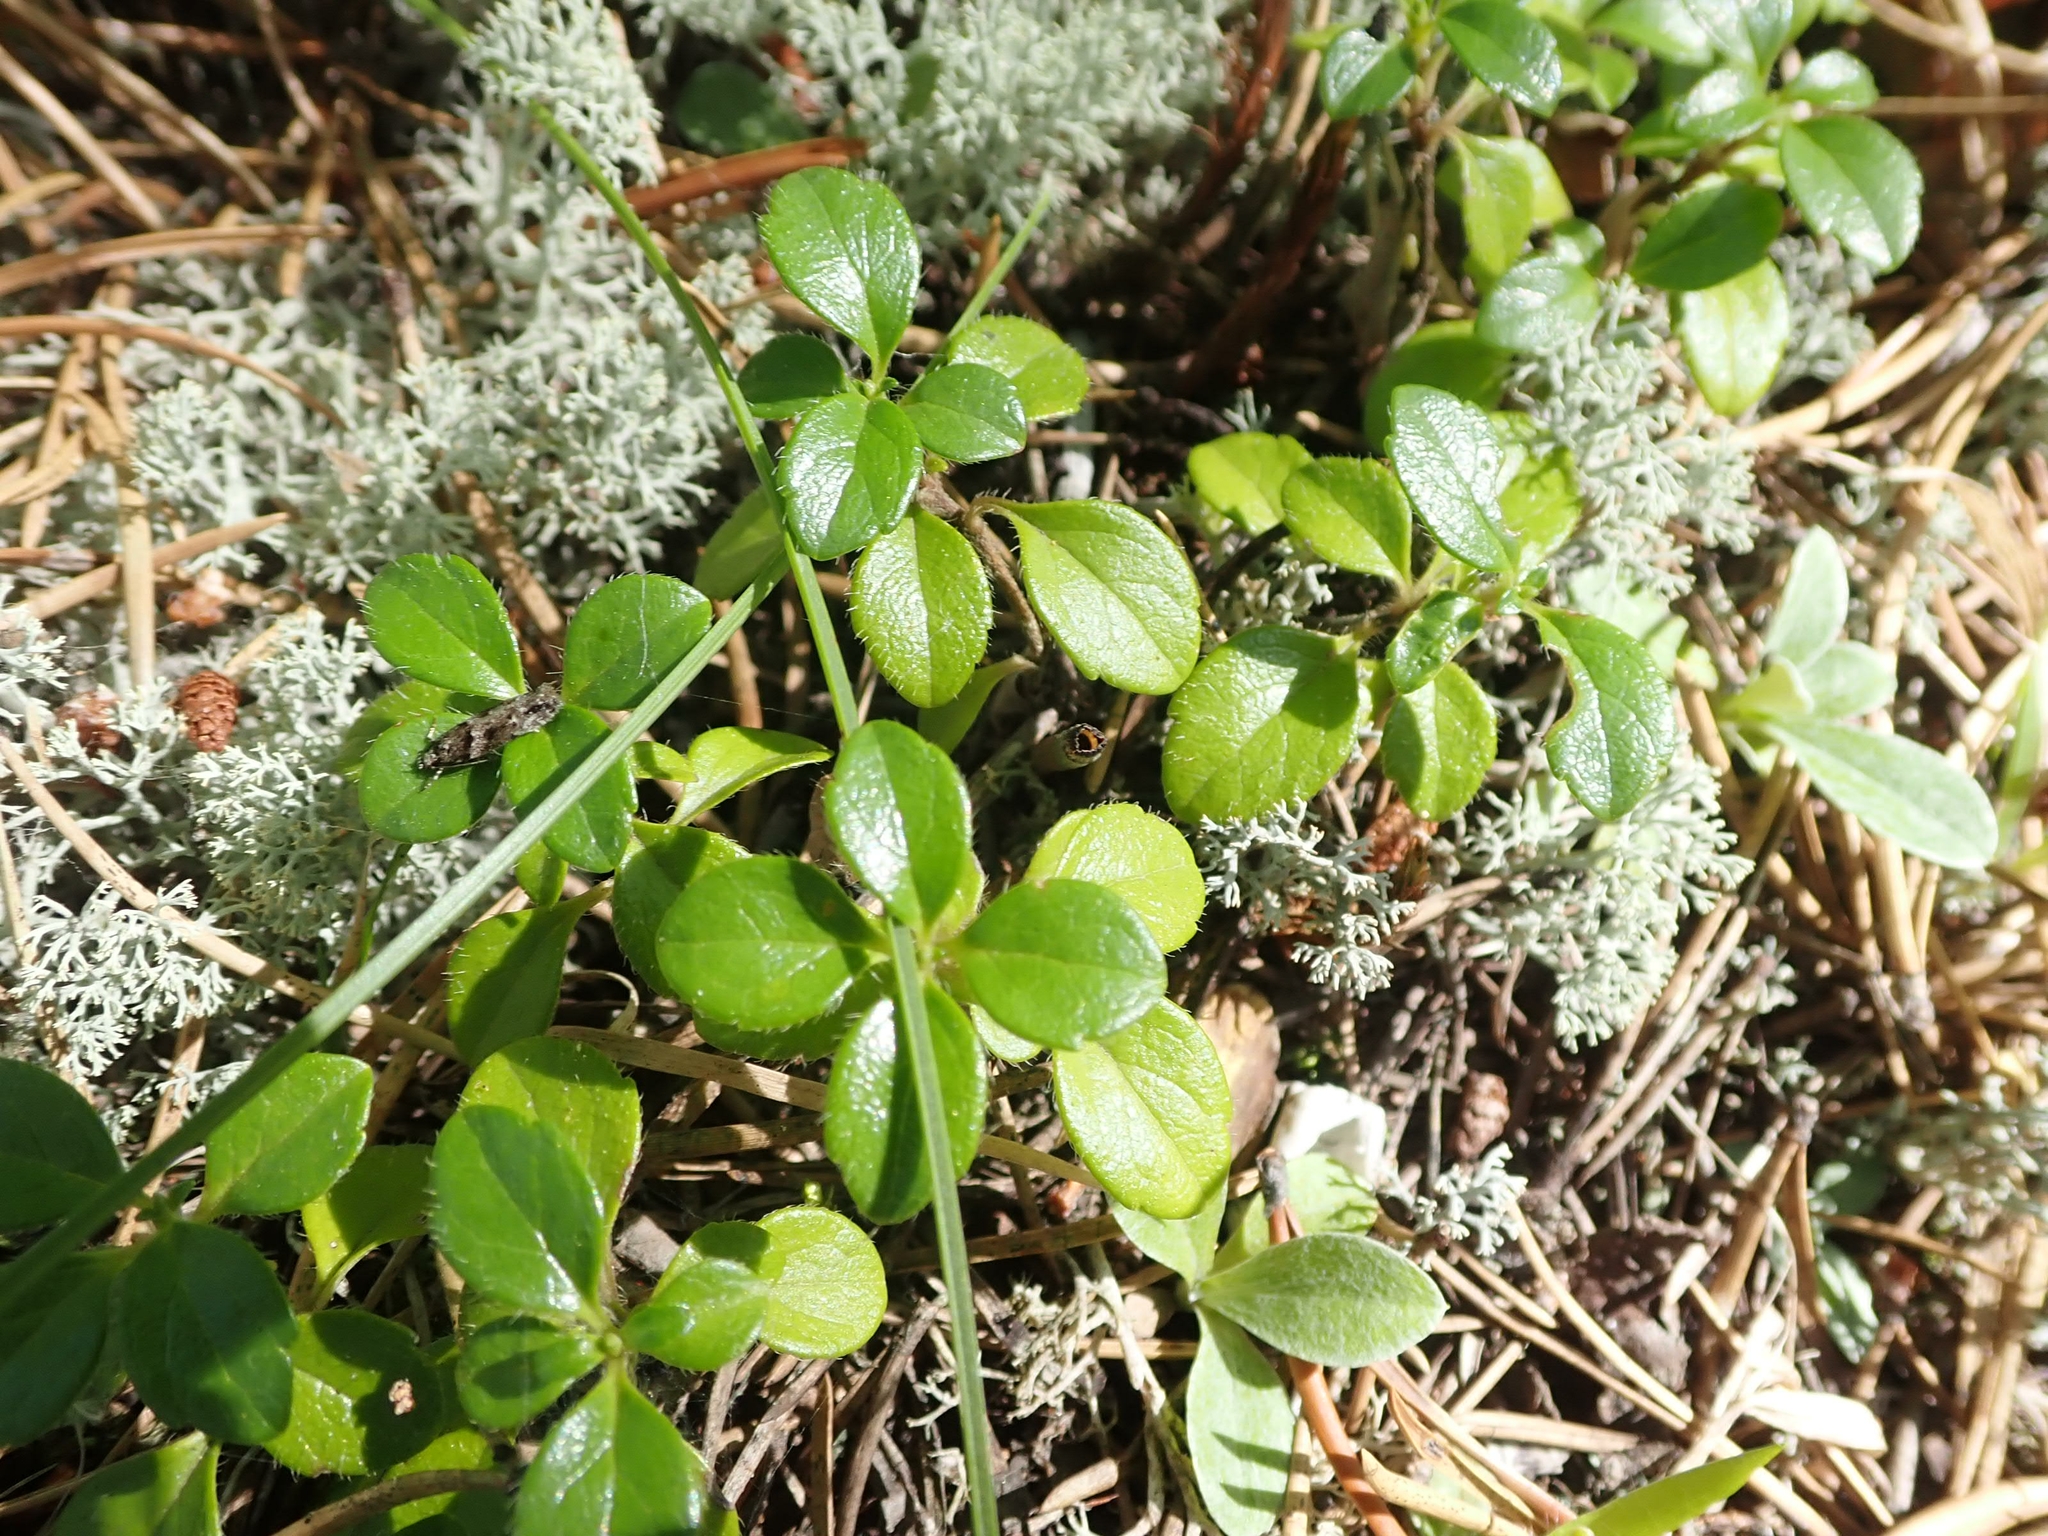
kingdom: Plantae
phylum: Tracheophyta
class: Magnoliopsida
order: Dipsacales
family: Caprifoliaceae
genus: Linnaea
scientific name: Linnaea borealis
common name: Twinflower
